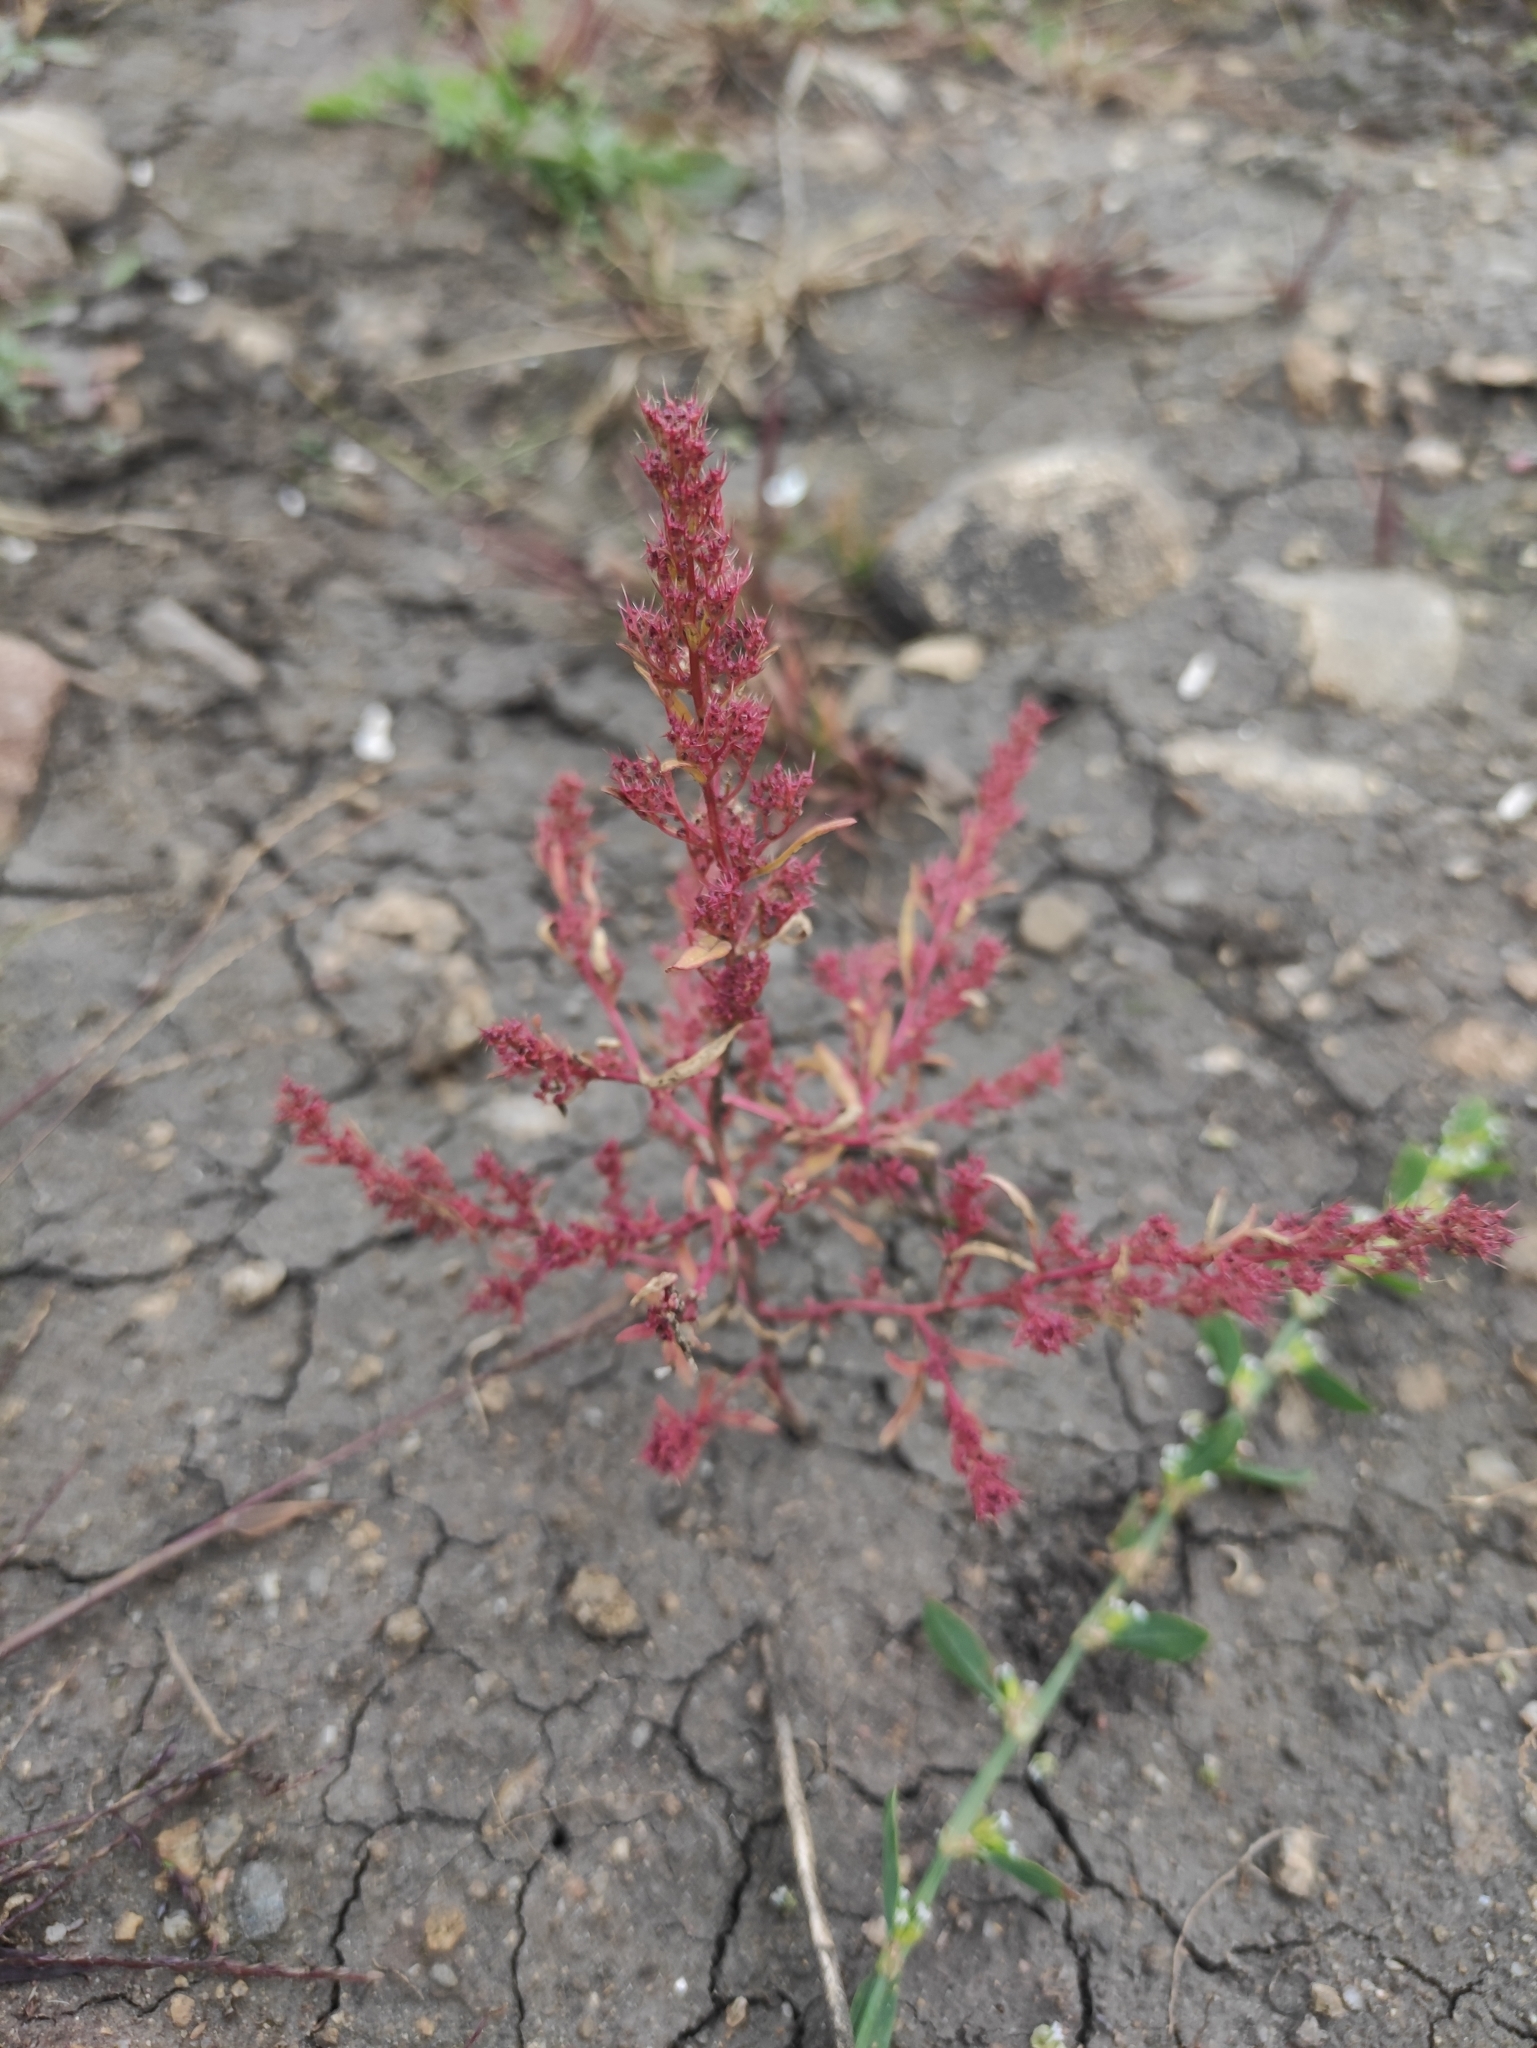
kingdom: Plantae
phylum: Tracheophyta
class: Magnoliopsida
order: Caryophyllales
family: Amaranthaceae
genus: Teloxys
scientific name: Teloxys aristata
